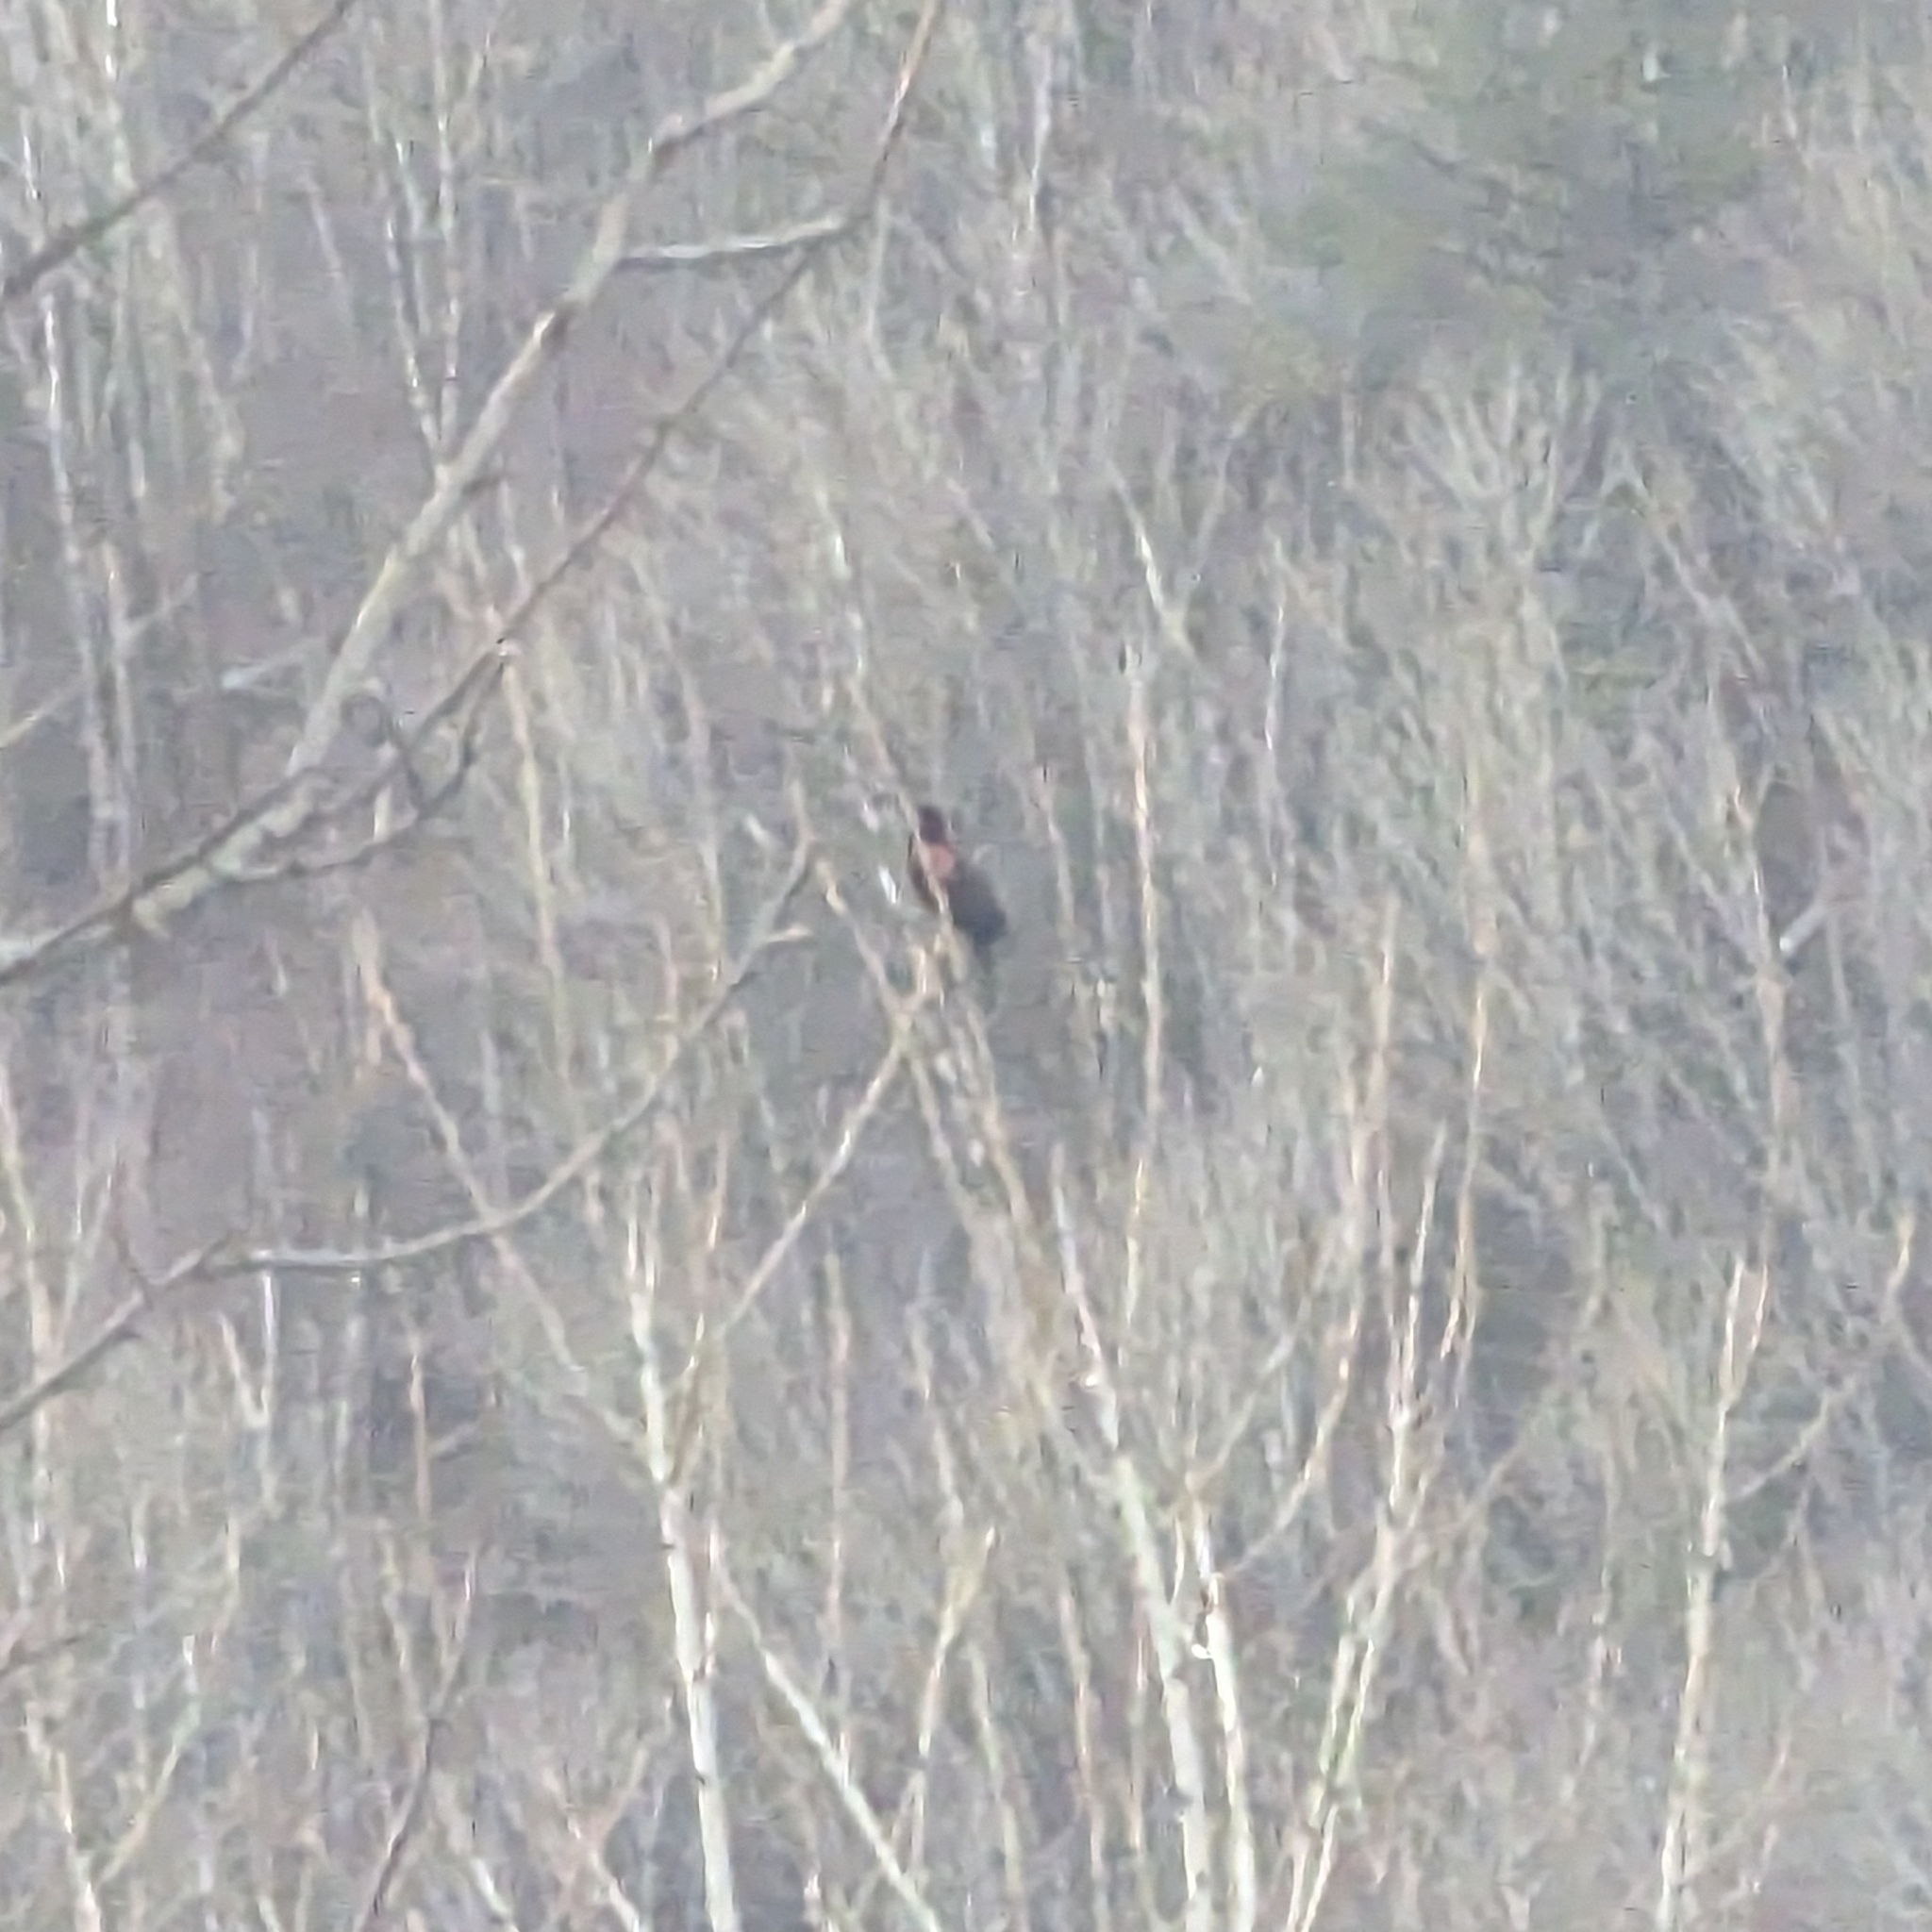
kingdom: Animalia
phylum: Chordata
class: Aves
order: Passeriformes
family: Icteridae
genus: Agelaius
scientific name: Agelaius phoeniceus
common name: Red-winged blackbird
